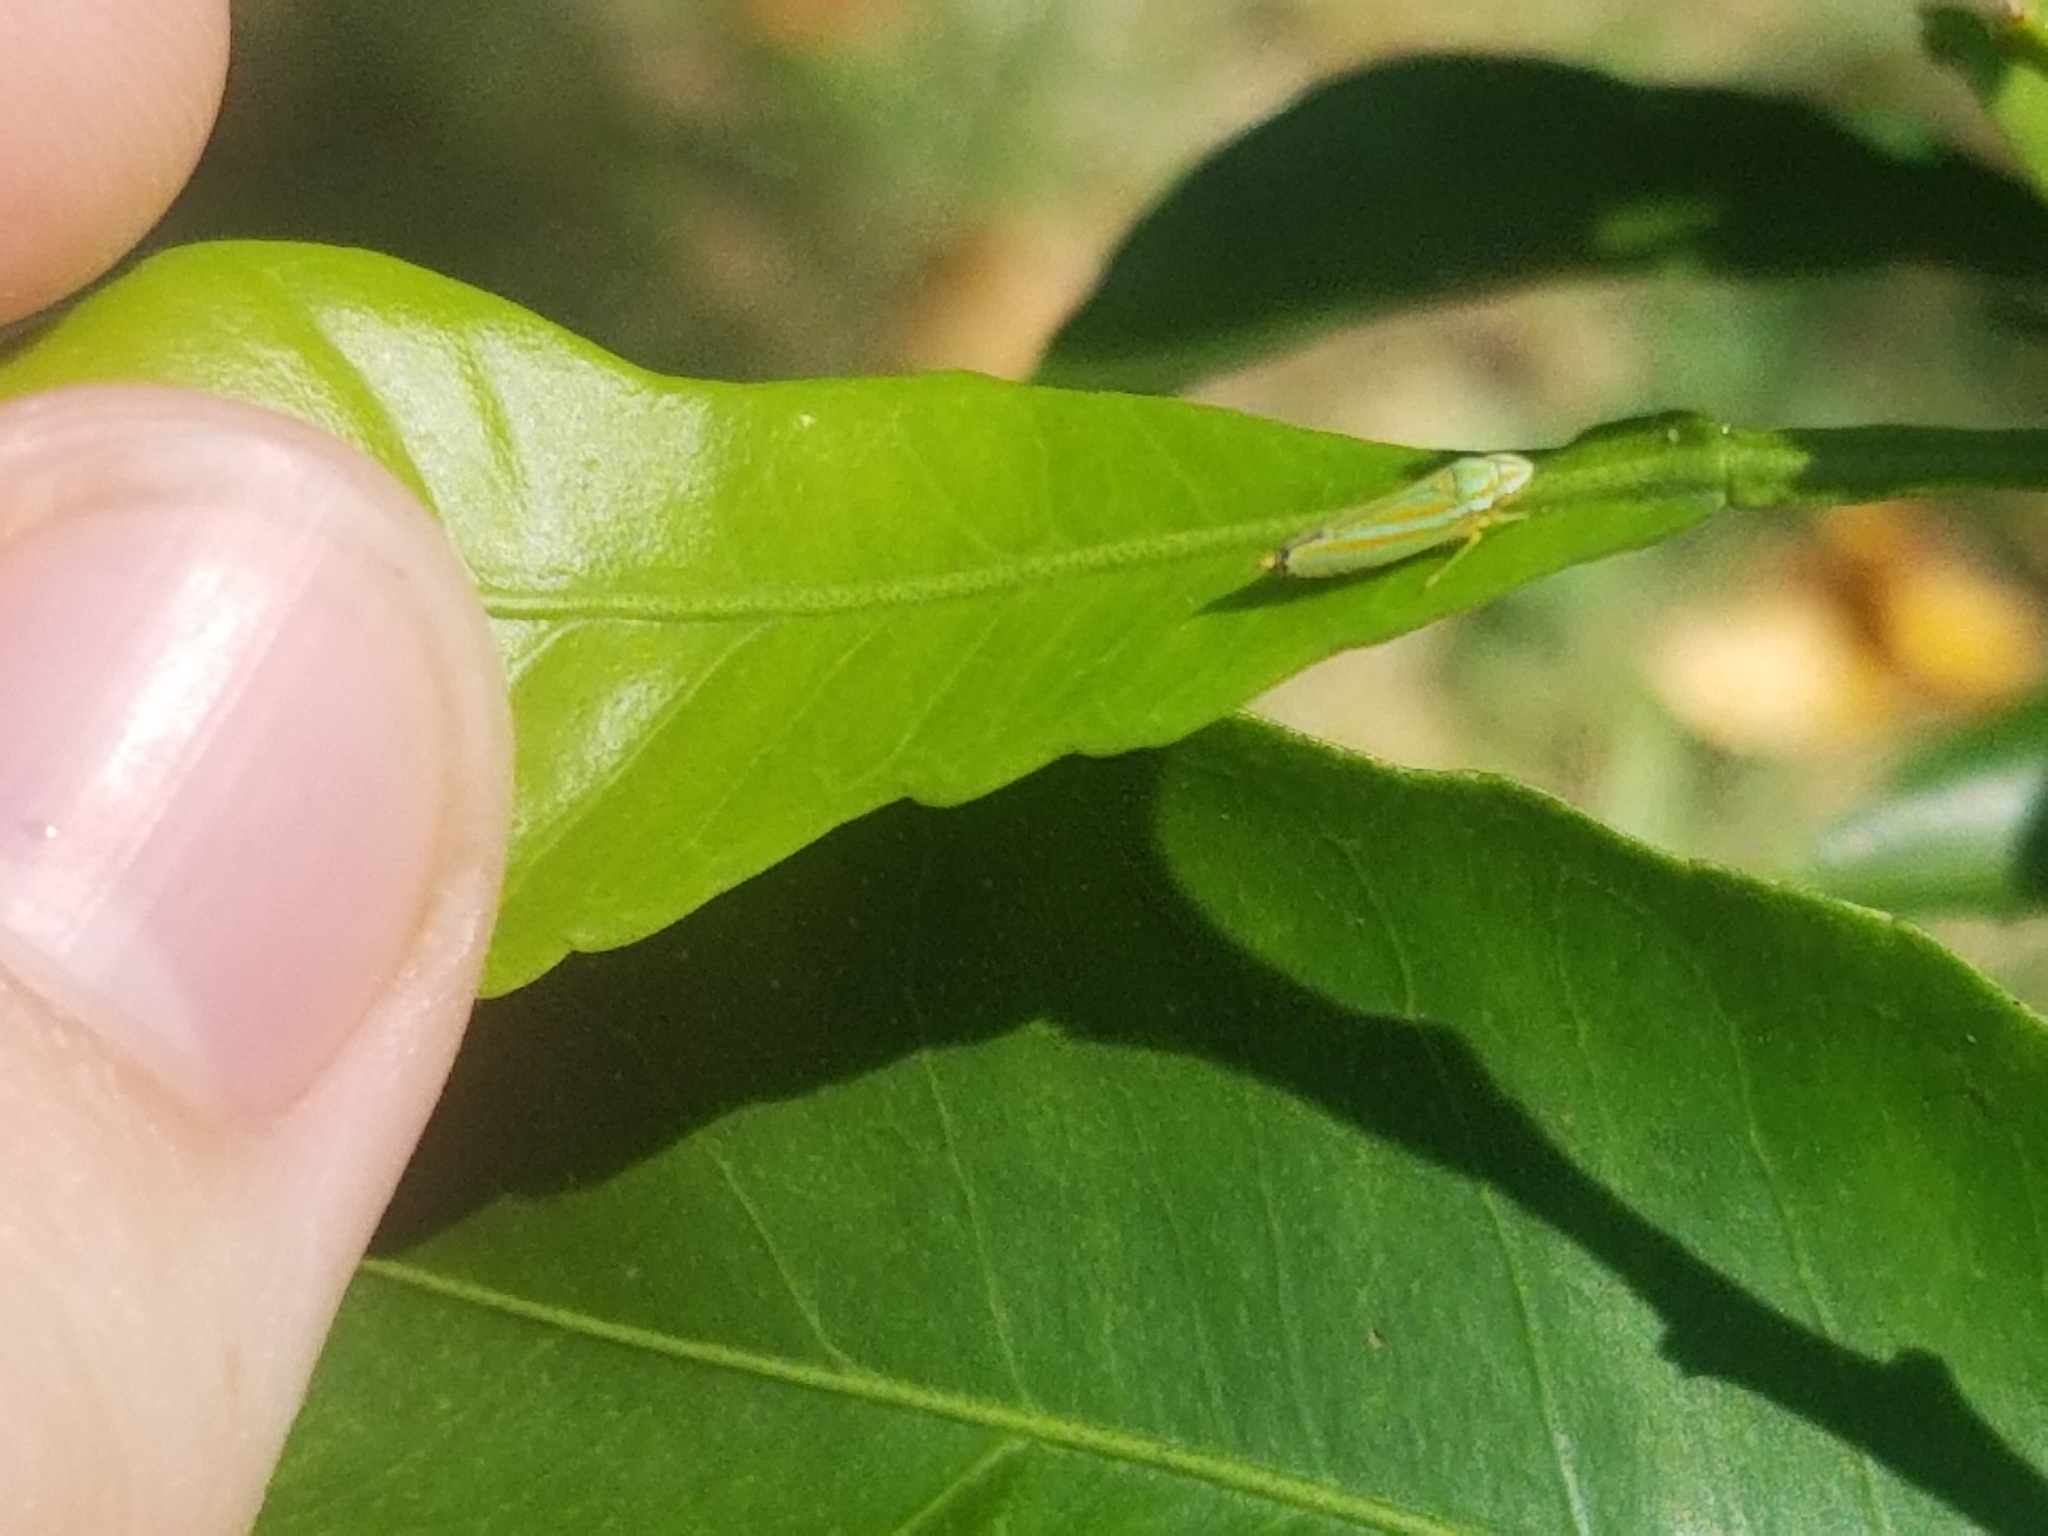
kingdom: Animalia
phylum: Arthropoda
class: Insecta
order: Hemiptera
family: Cicadellidae
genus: Graphocephala
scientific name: Graphocephala versuta
